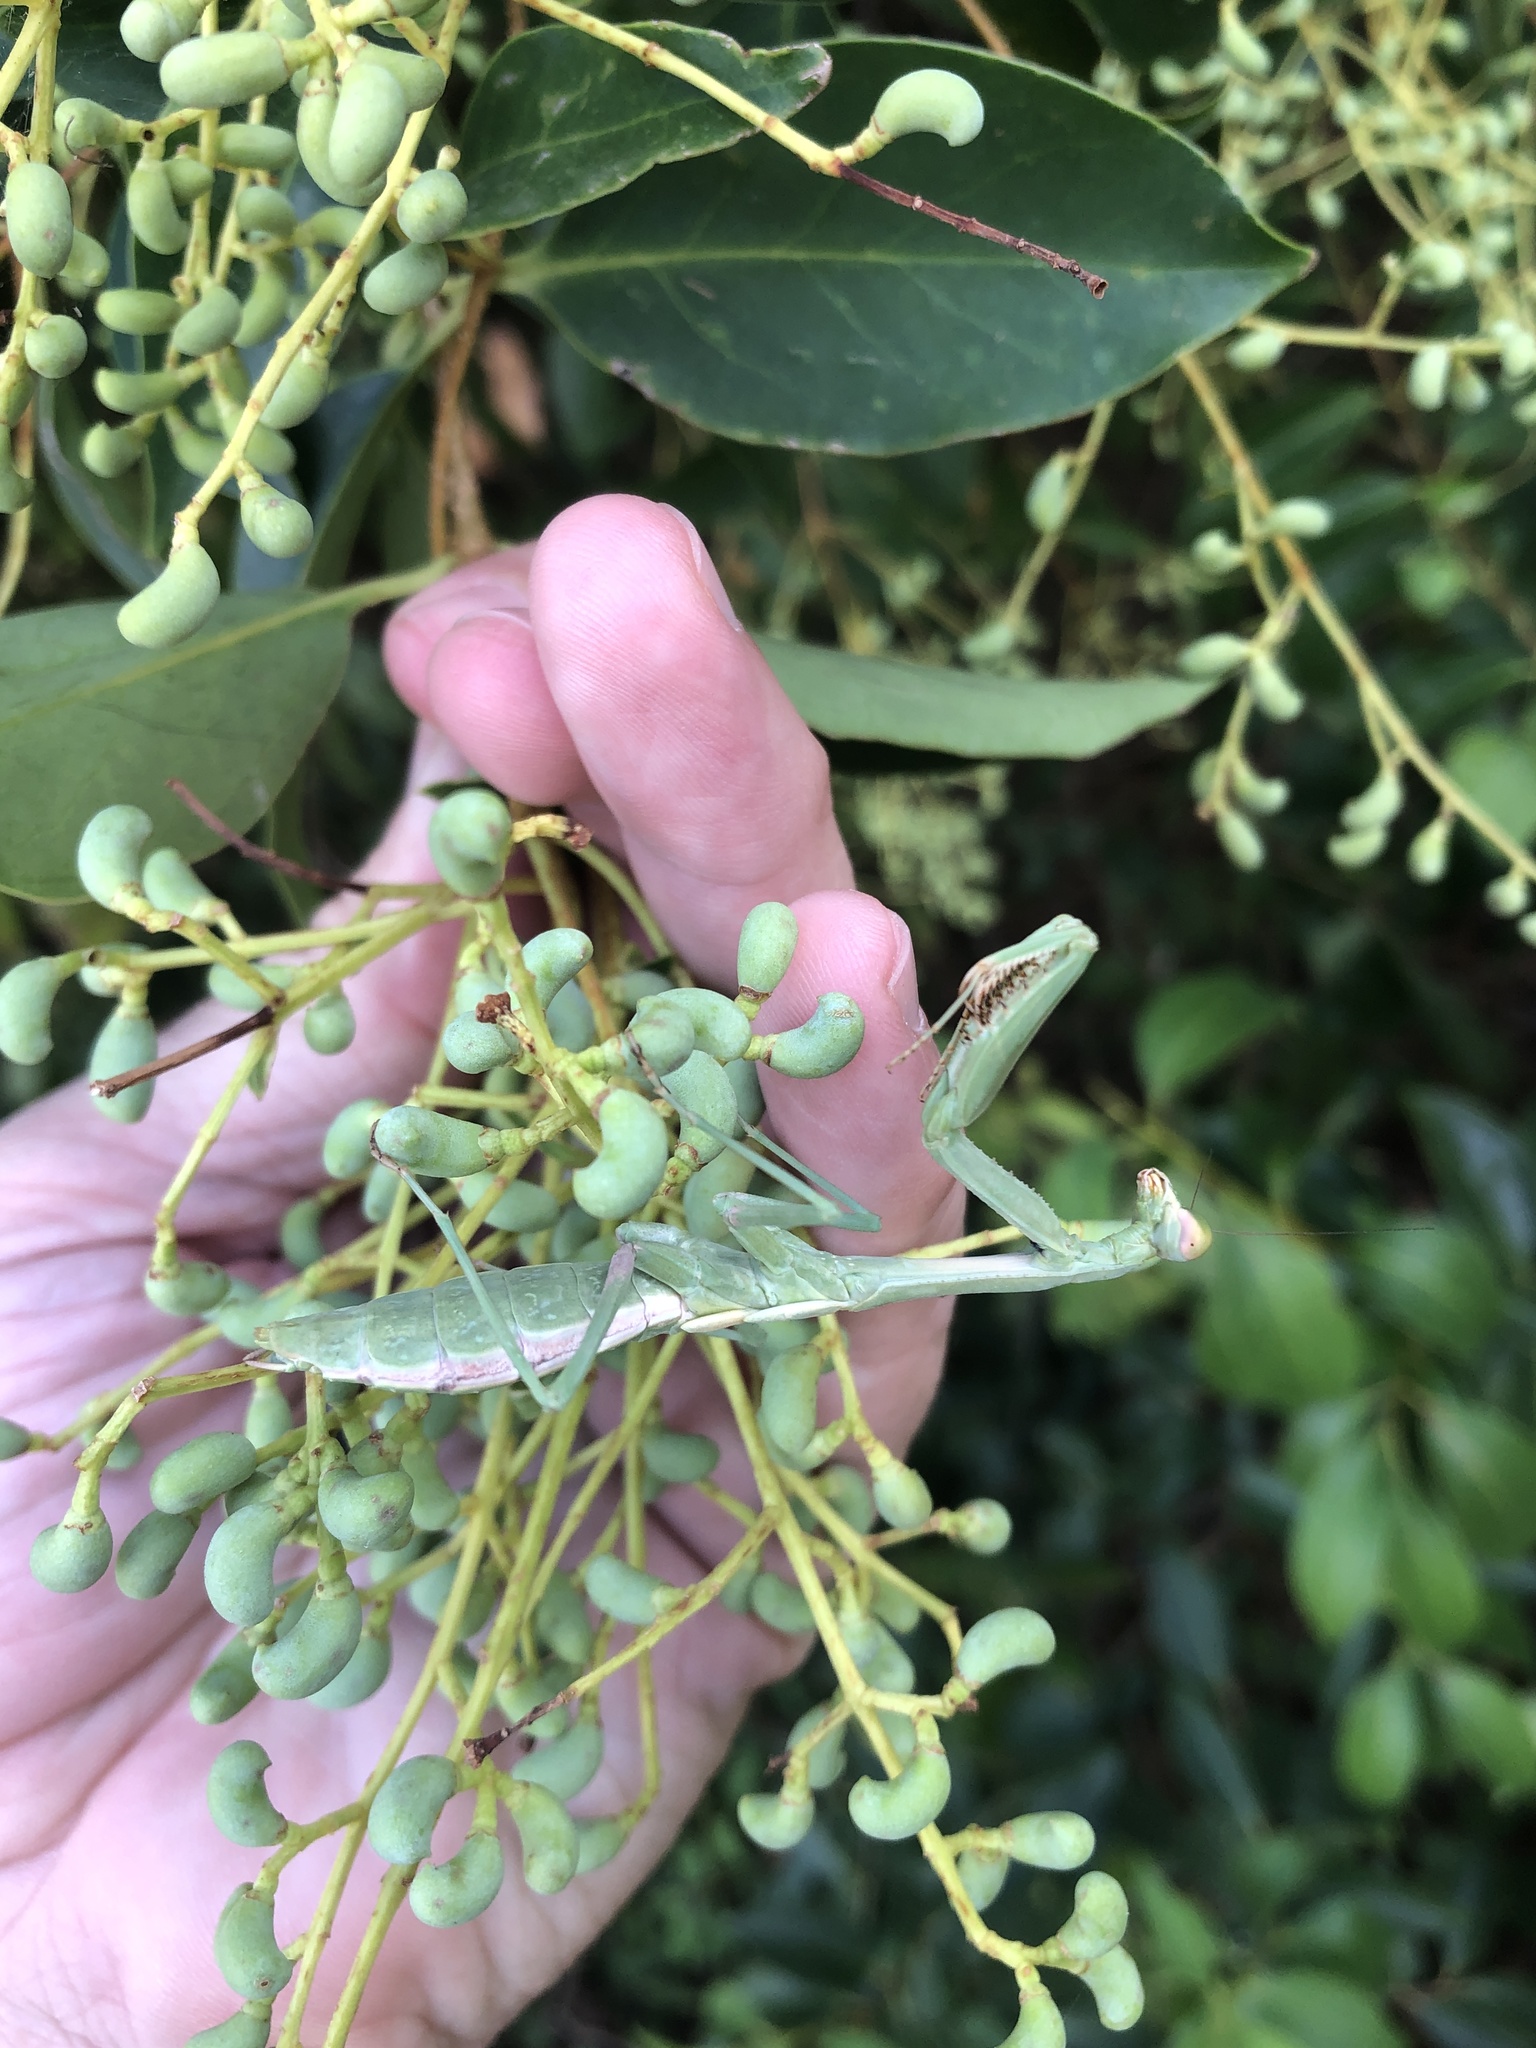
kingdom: Animalia
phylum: Arthropoda
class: Insecta
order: Mantodea
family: Mantidae
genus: Stagmomantis
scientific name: Stagmomantis carolina
